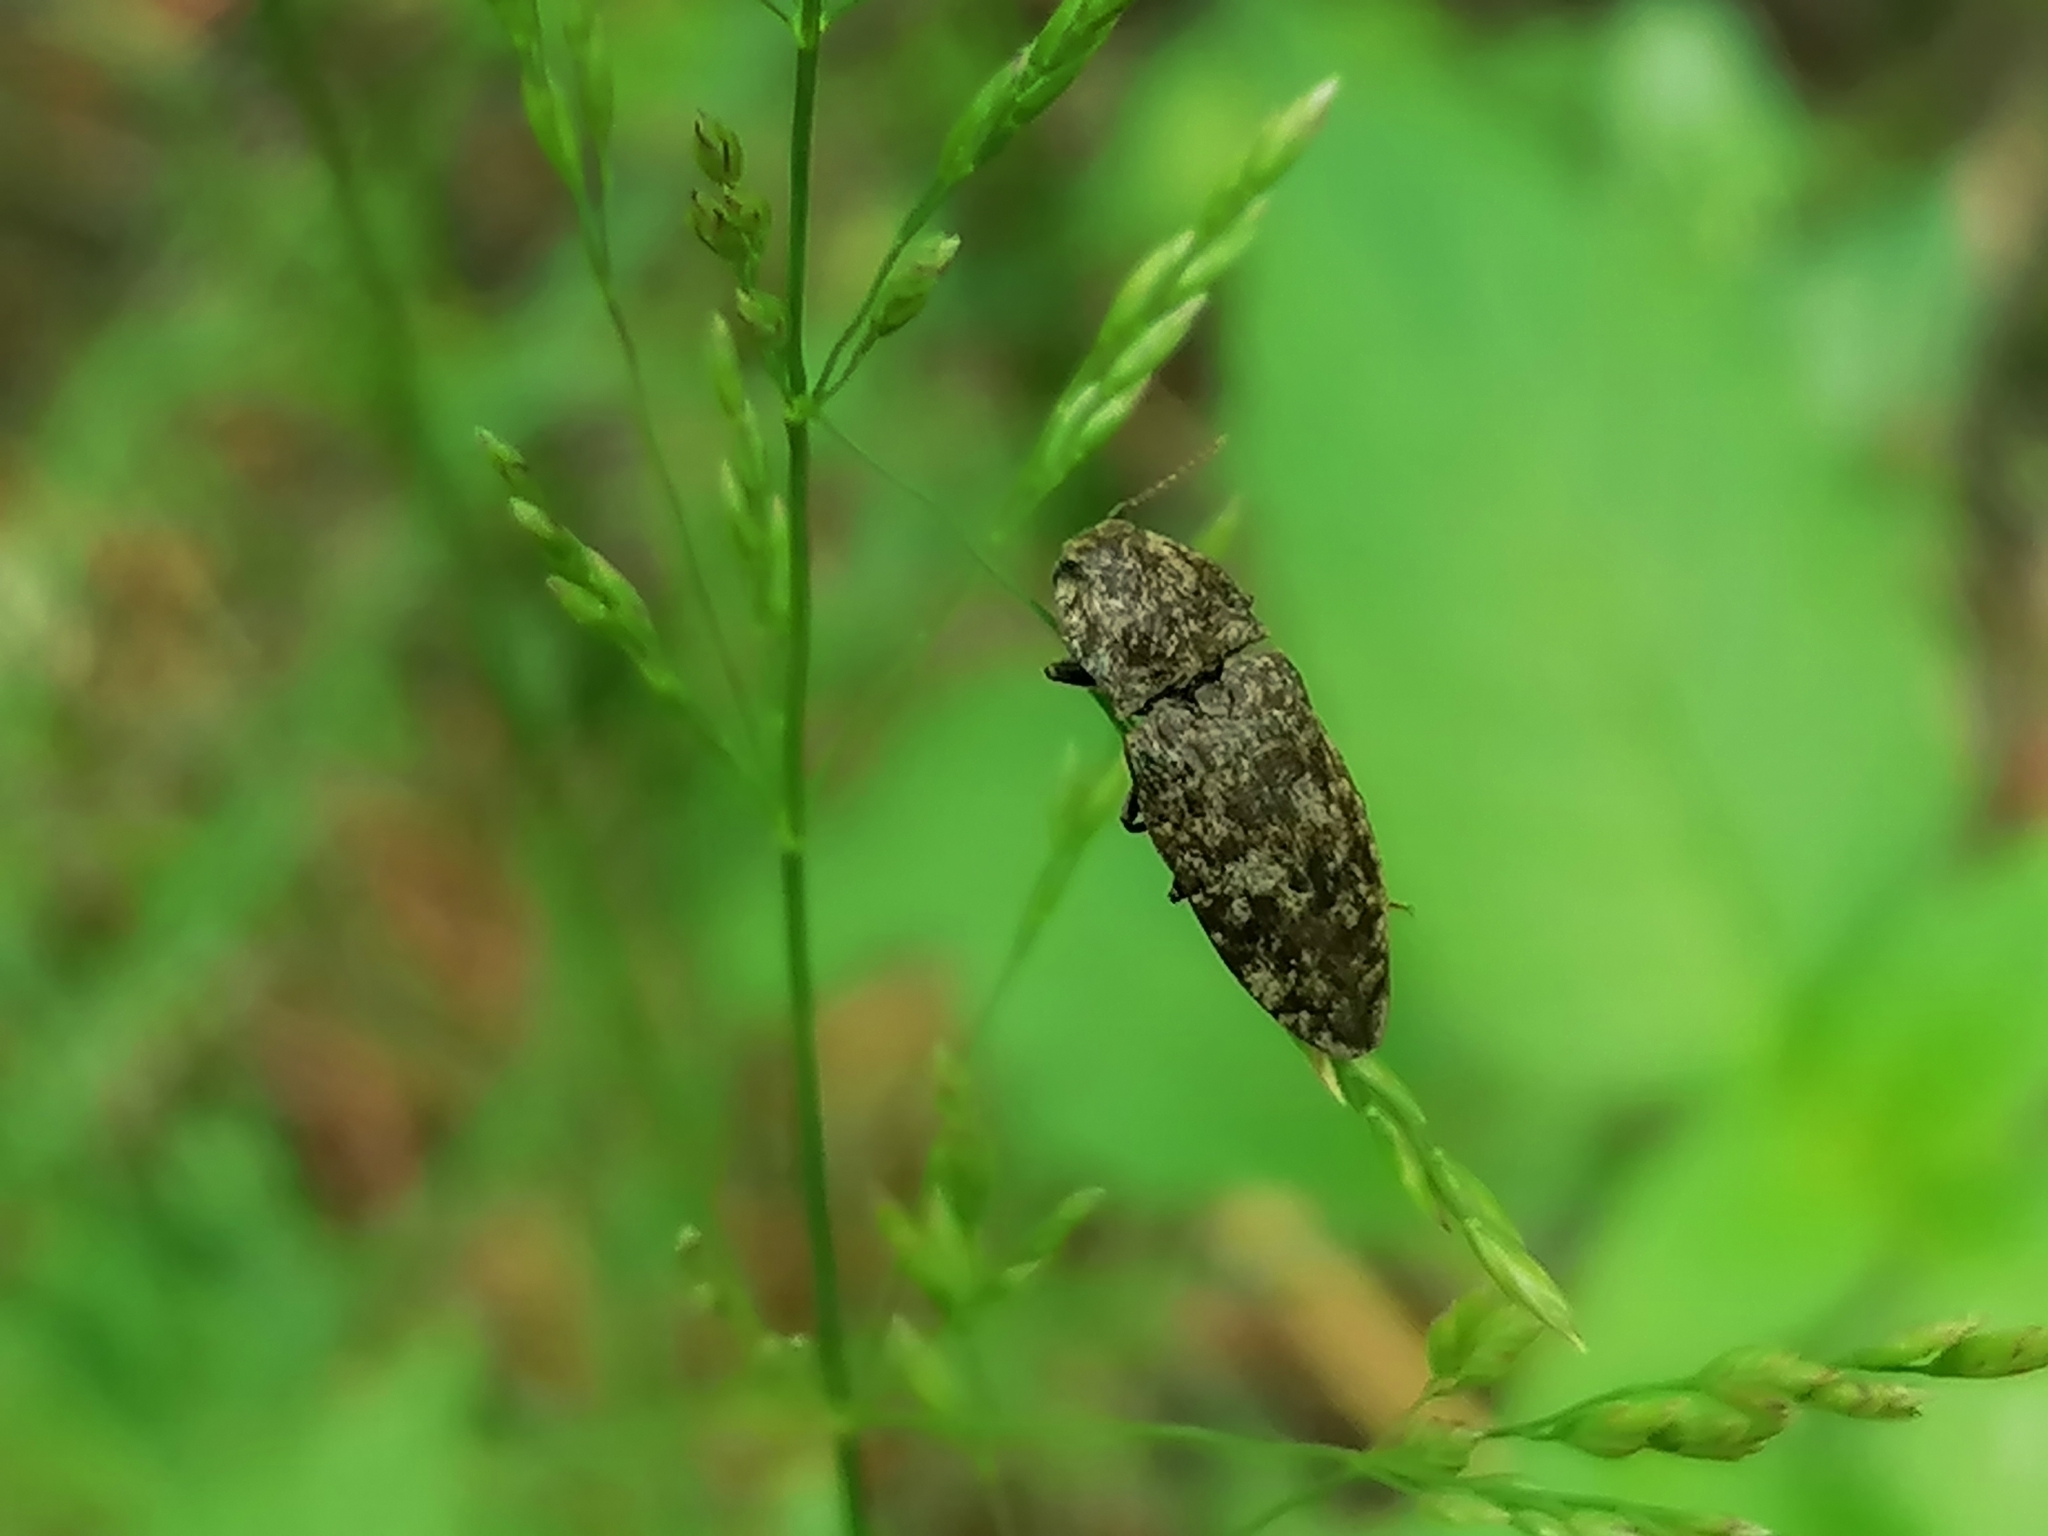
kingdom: Animalia
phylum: Arthropoda
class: Insecta
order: Coleoptera
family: Elateridae
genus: Agrypnus
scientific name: Agrypnus murinus
